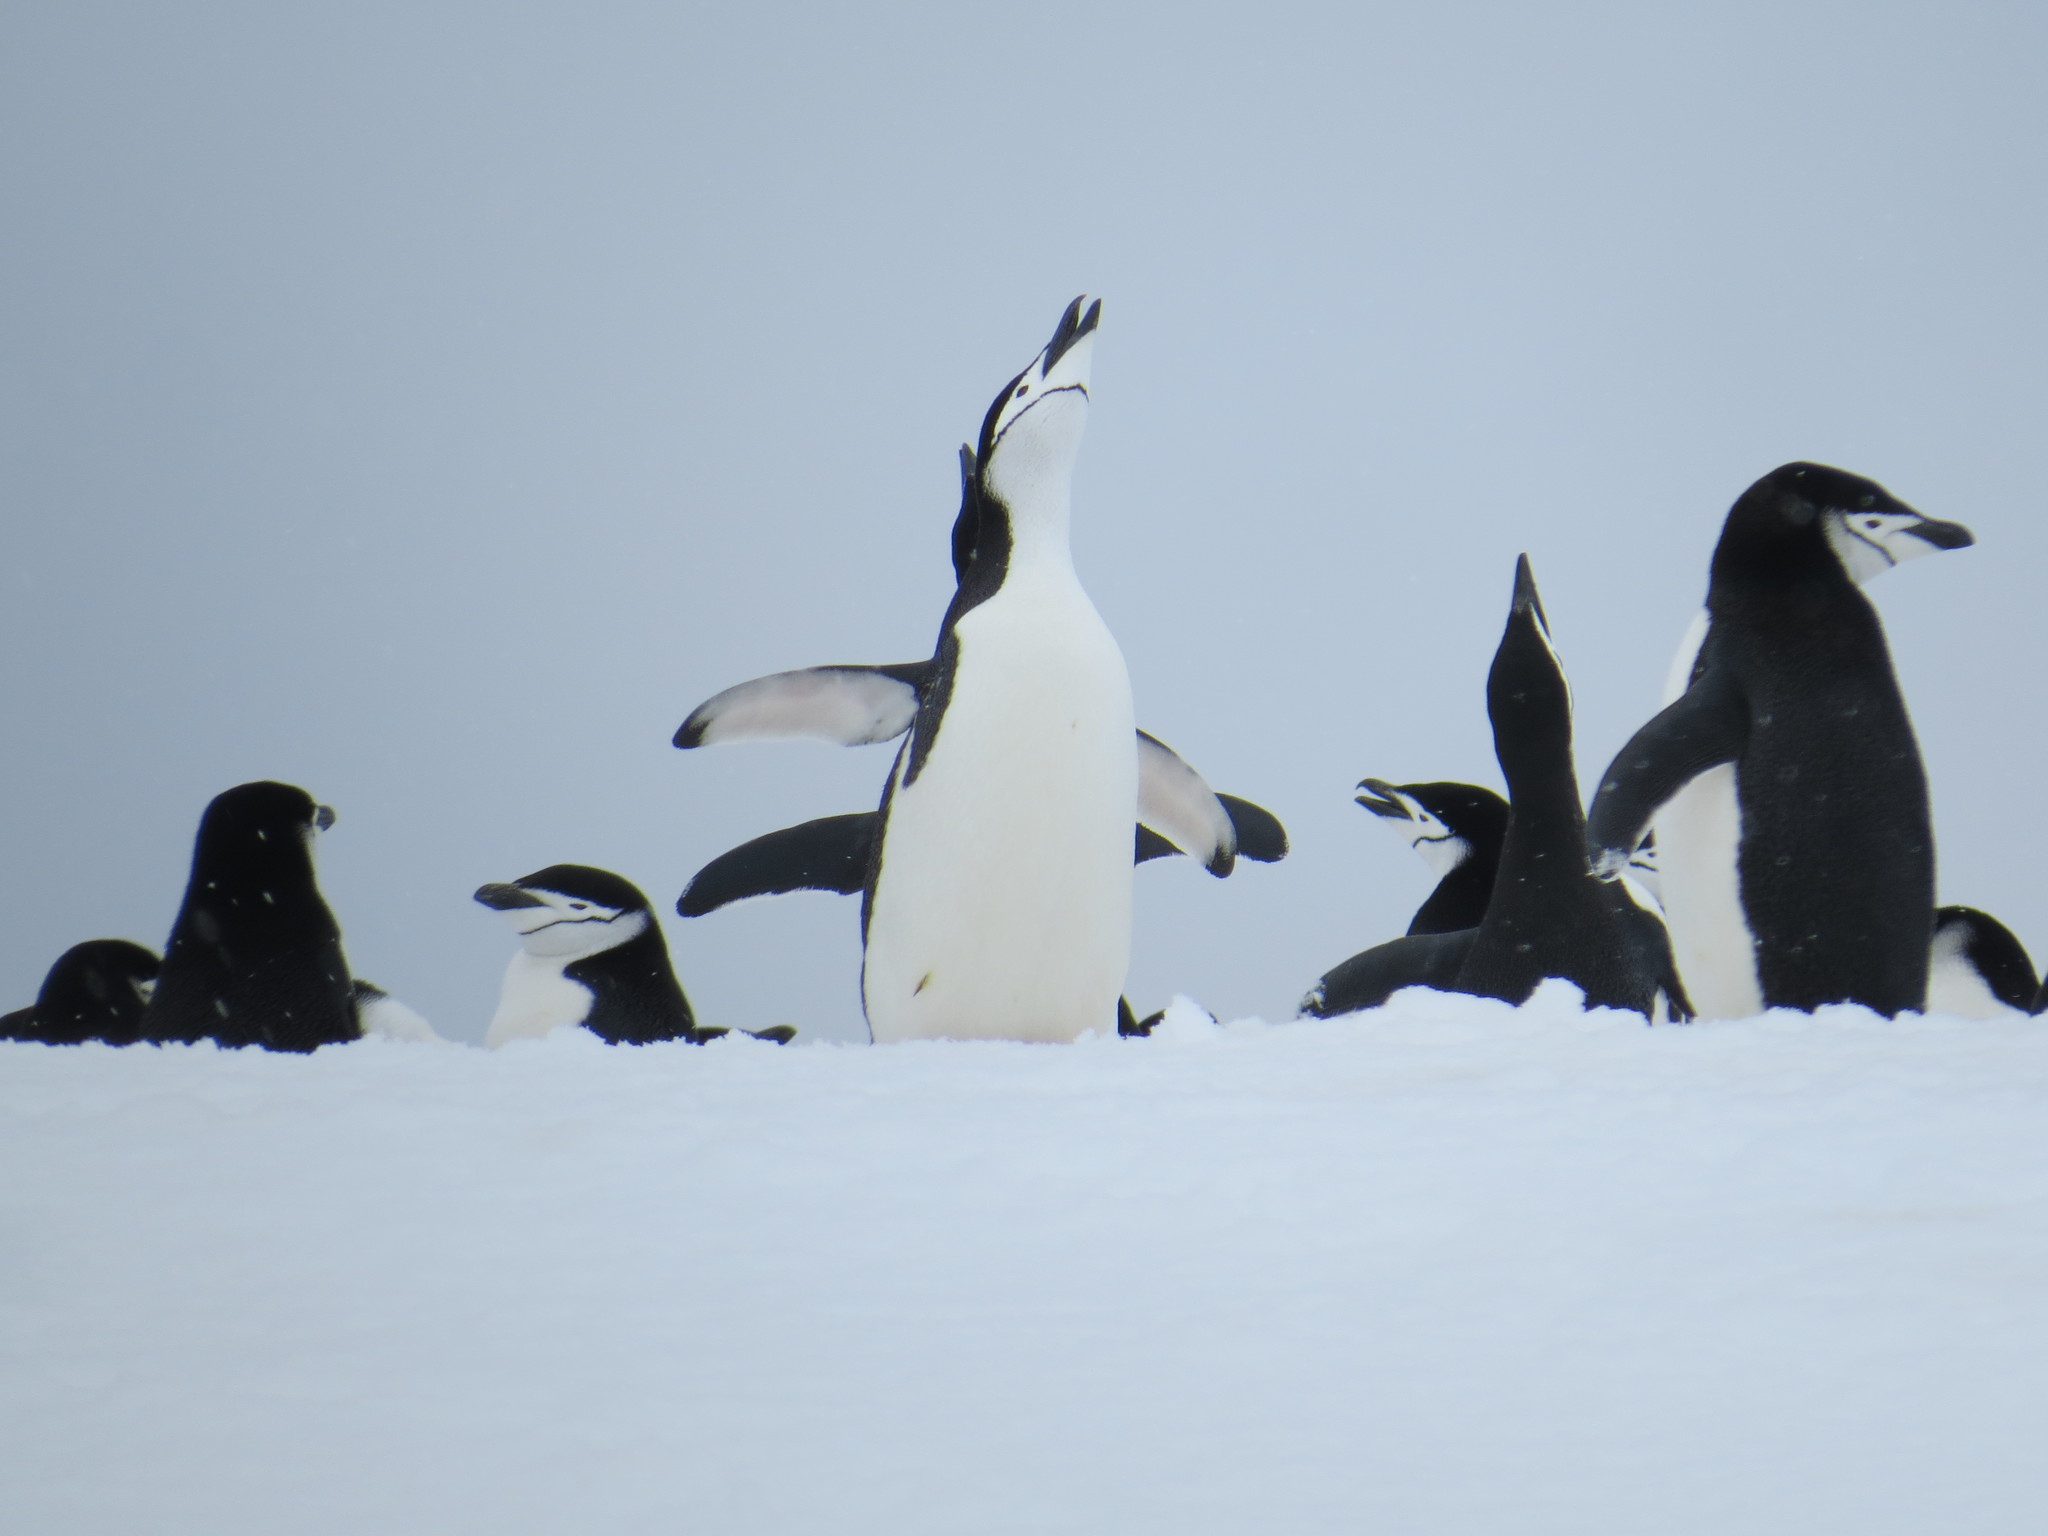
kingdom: Animalia
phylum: Chordata
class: Aves
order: Sphenisciformes
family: Spheniscidae
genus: Pygoscelis
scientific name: Pygoscelis antarcticus
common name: Chinstrap penguin
